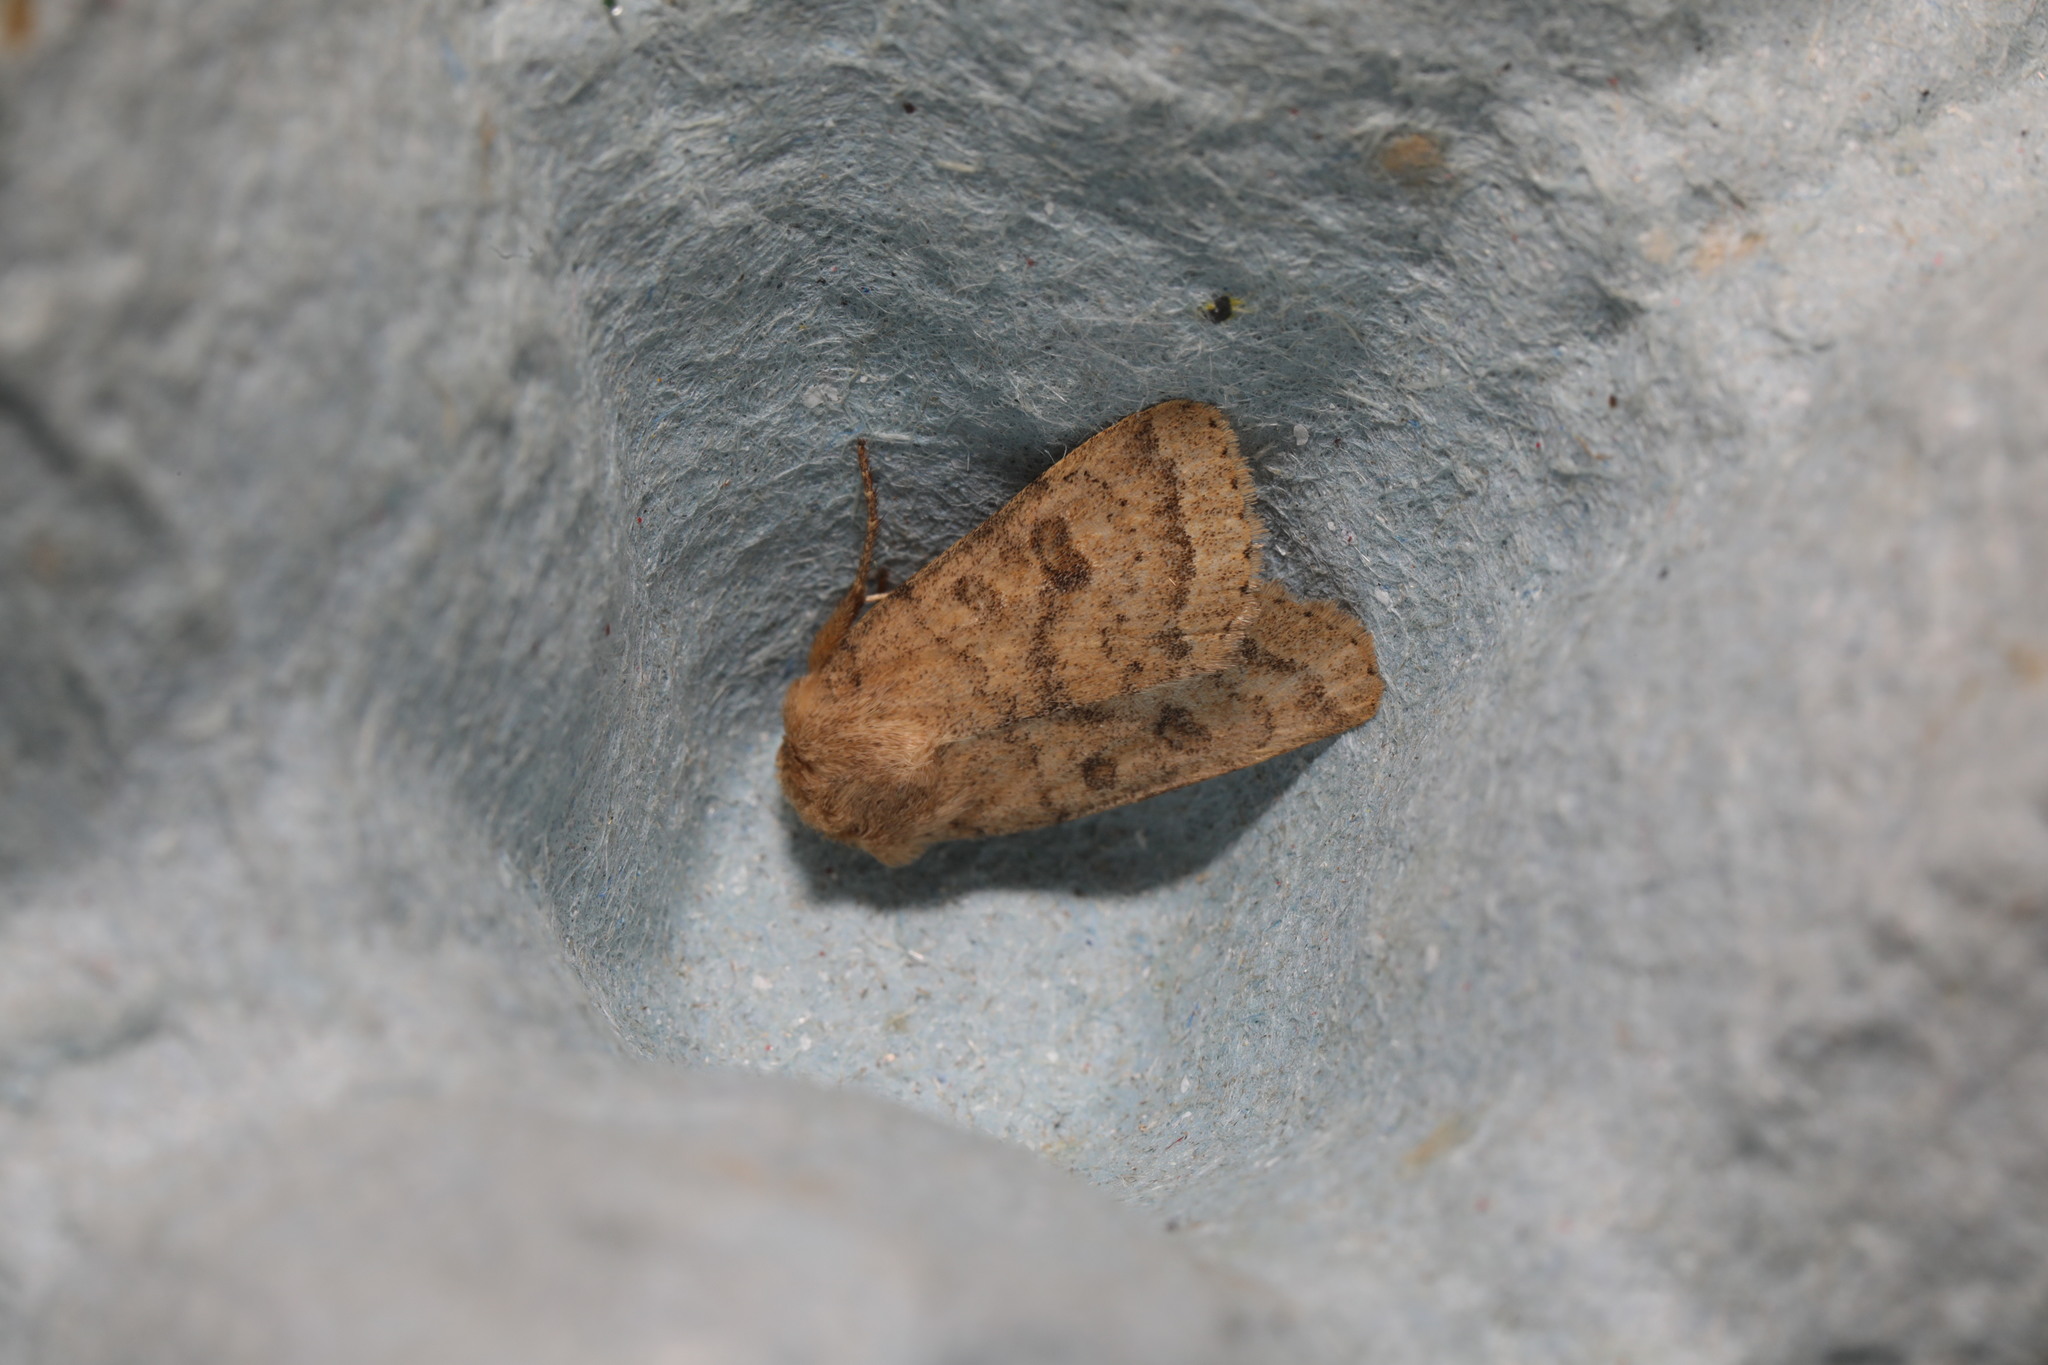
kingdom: Animalia
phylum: Arthropoda
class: Insecta
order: Lepidoptera
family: Noctuidae
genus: Hoplodrina
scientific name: Hoplodrina octogenaria
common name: Uncertain
